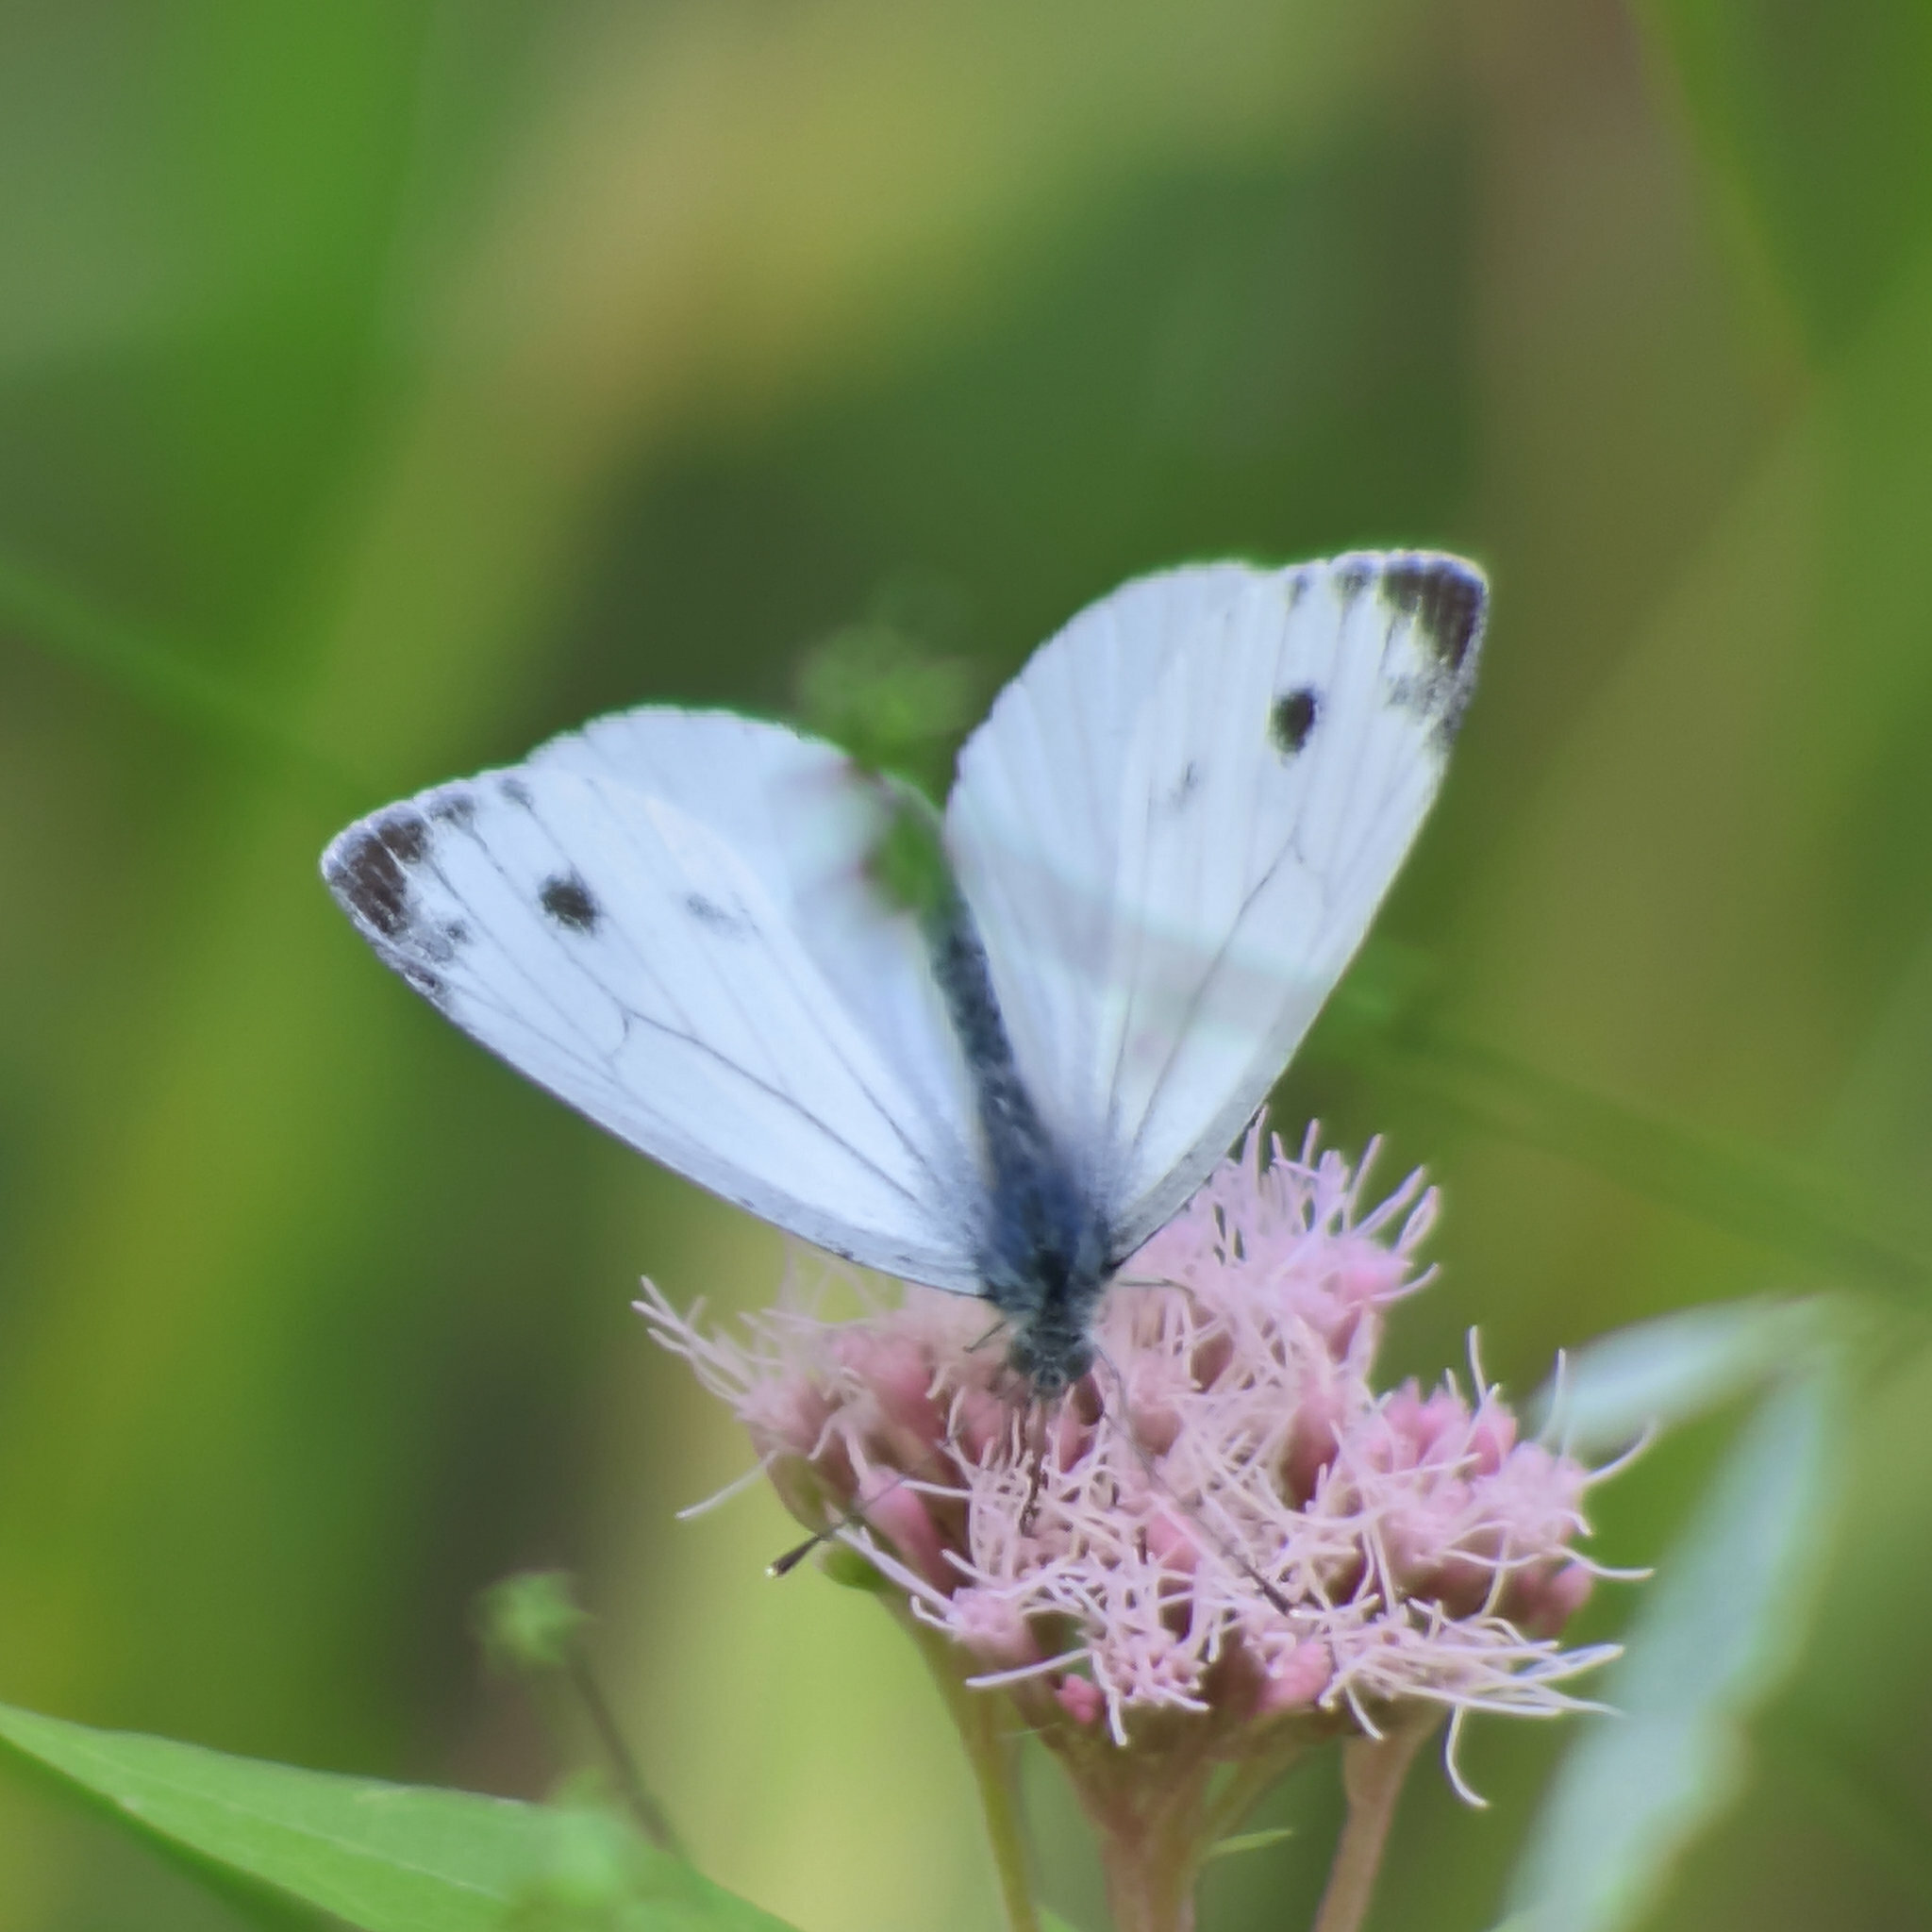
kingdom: Animalia
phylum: Arthropoda
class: Insecta
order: Lepidoptera
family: Pieridae
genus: Pieris
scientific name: Pieris napi
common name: Green-veined white
